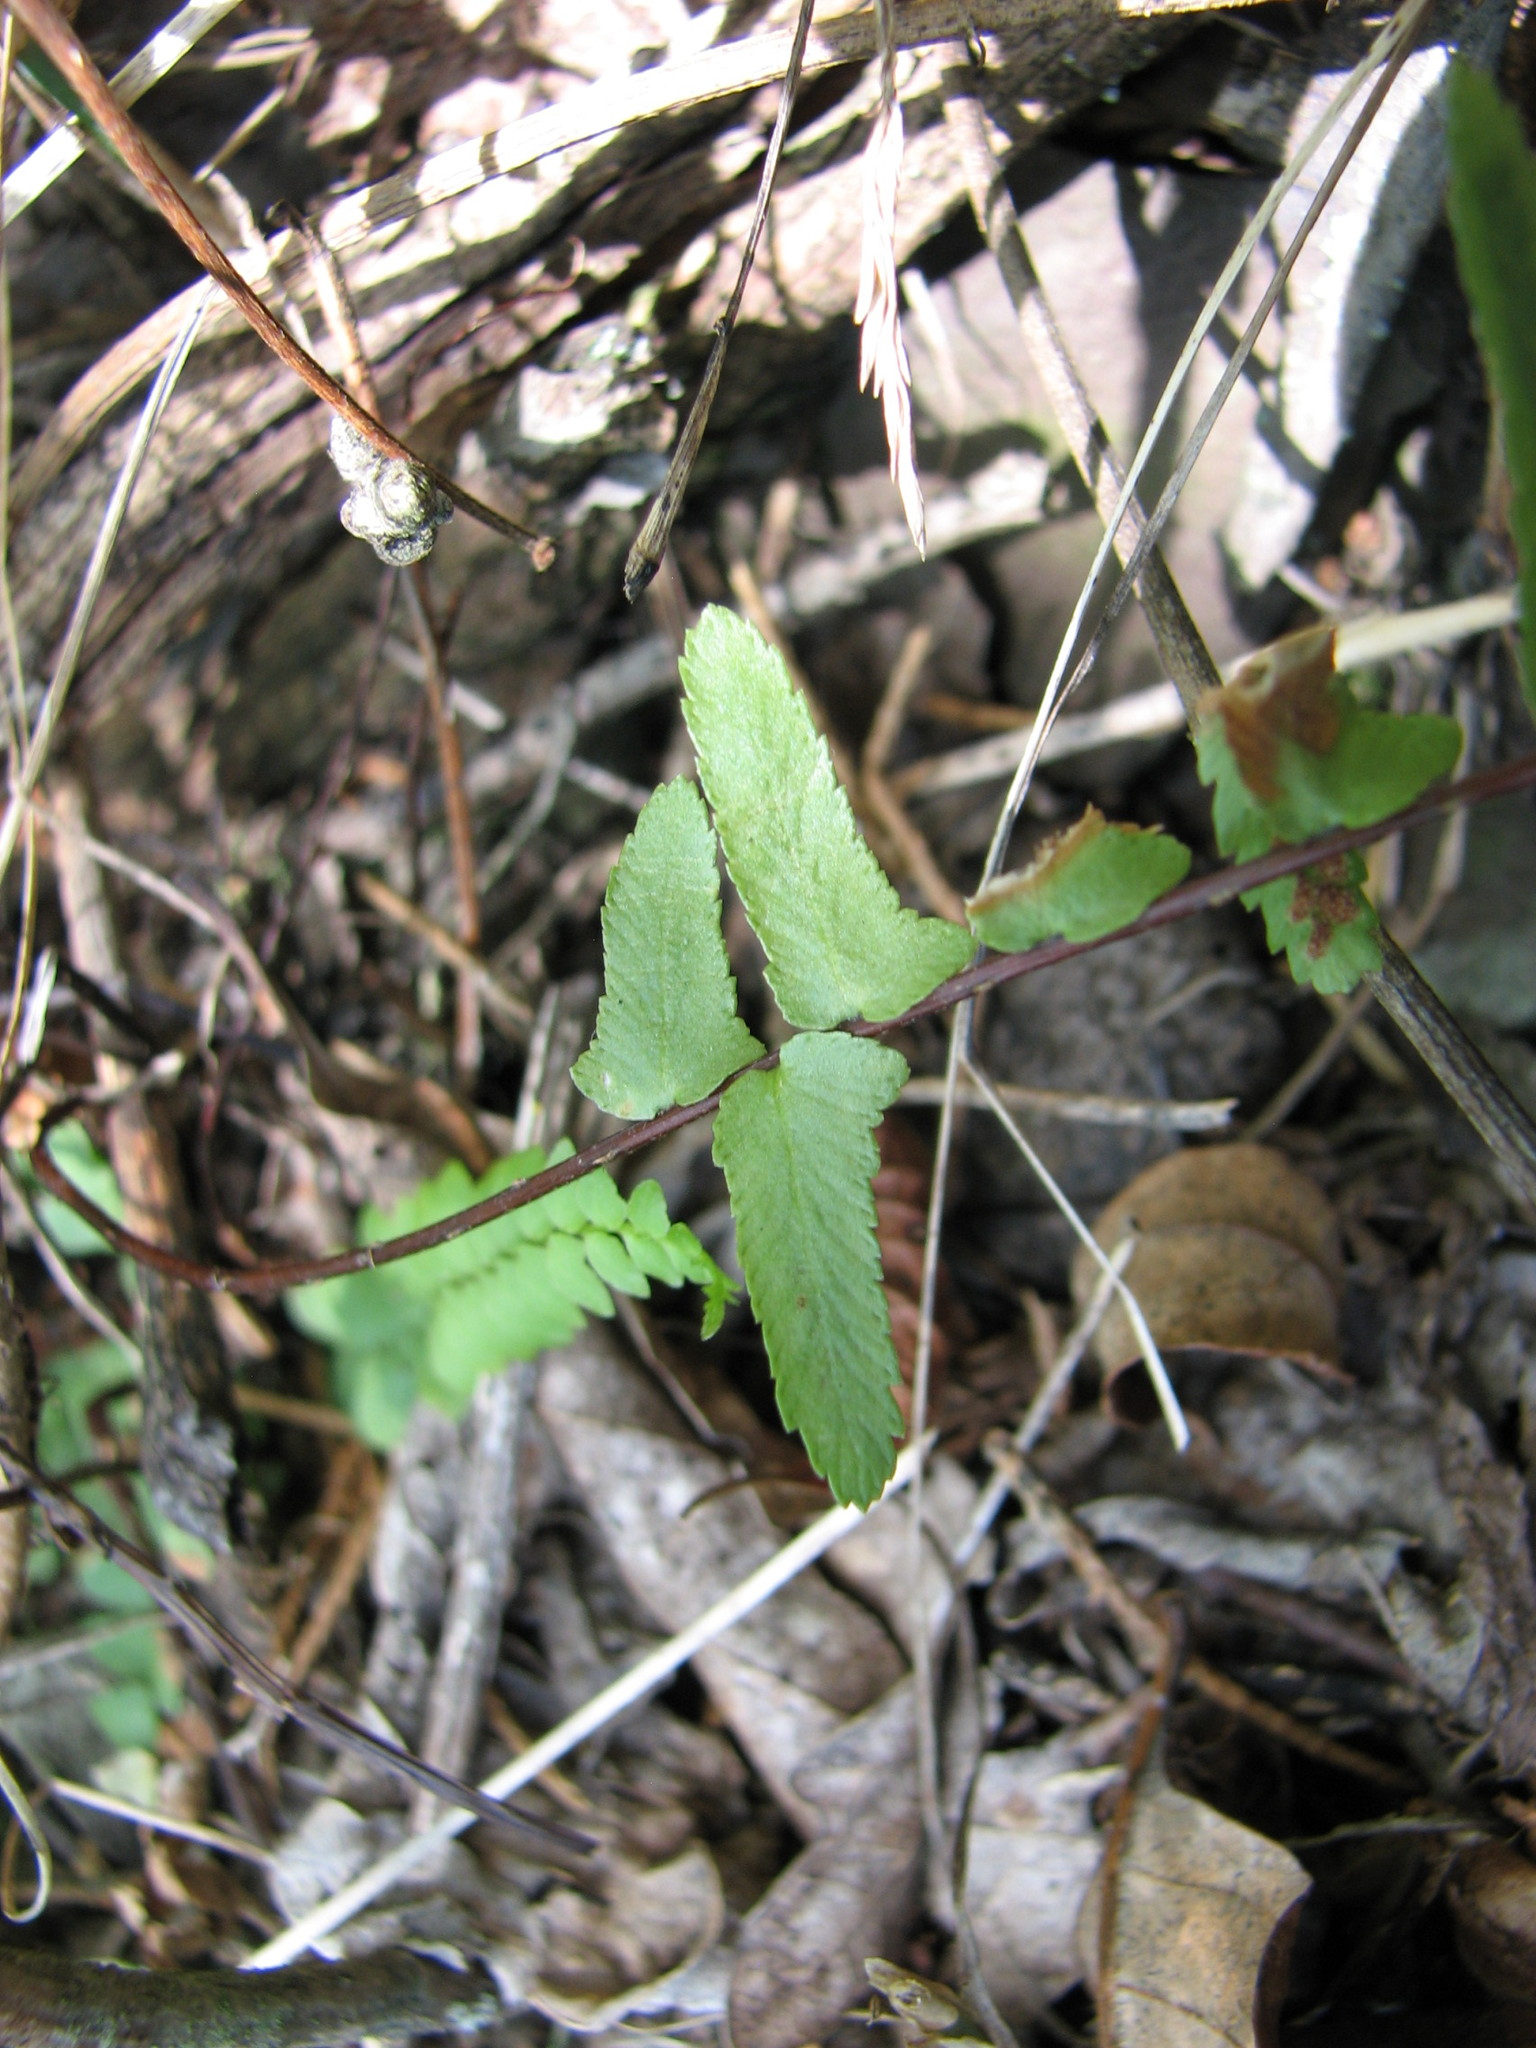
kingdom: Plantae
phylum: Tracheophyta
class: Polypodiopsida
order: Polypodiales
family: Aspleniaceae
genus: Asplenium
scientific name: Asplenium platyneuron
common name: Ebony spleenwort
